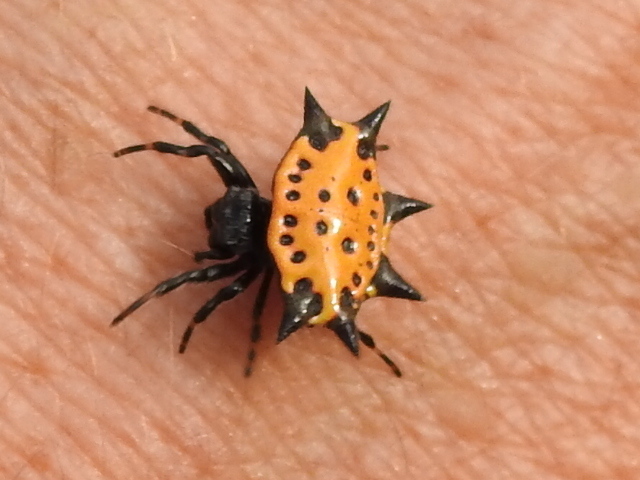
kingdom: Animalia
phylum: Arthropoda
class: Arachnida
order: Araneae
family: Araneidae
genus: Gasteracantha
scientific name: Gasteracantha cancriformis
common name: Orb weavers
